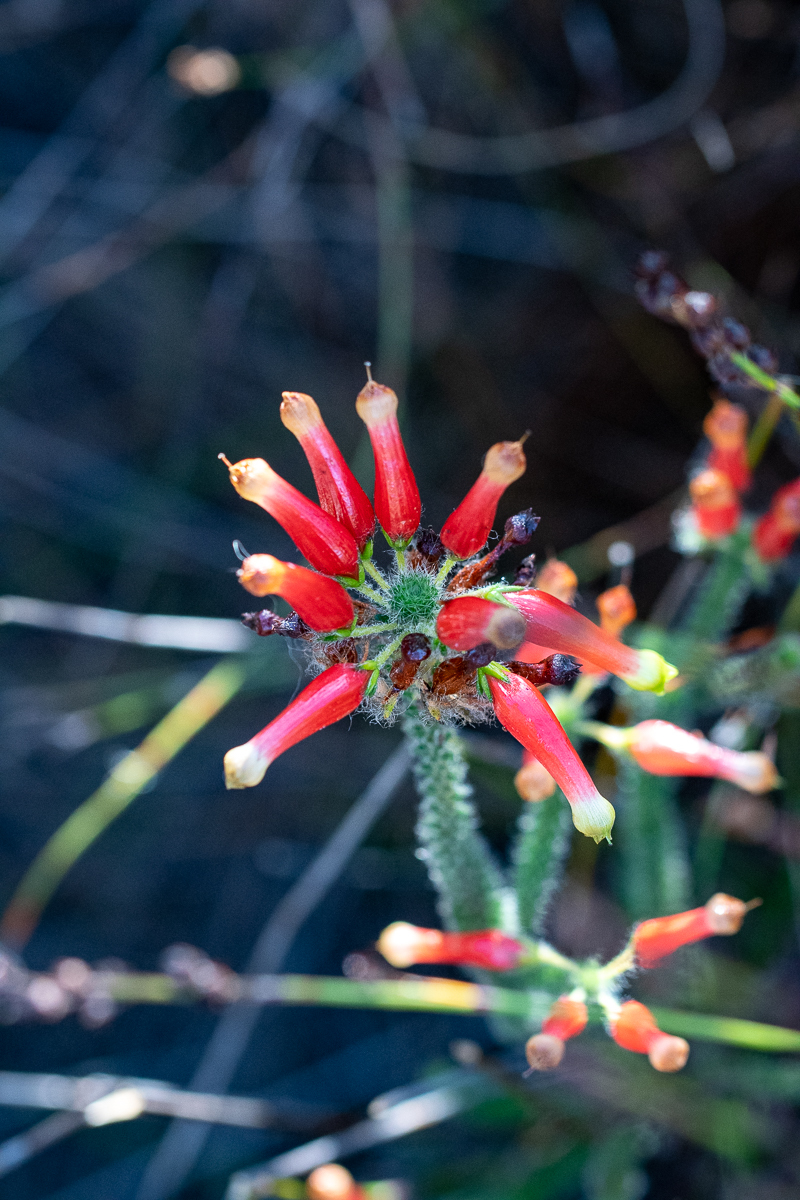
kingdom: Plantae
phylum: Tracheophyta
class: Magnoliopsida
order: Ericales
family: Ericaceae
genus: Erica
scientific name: Erica massonii
